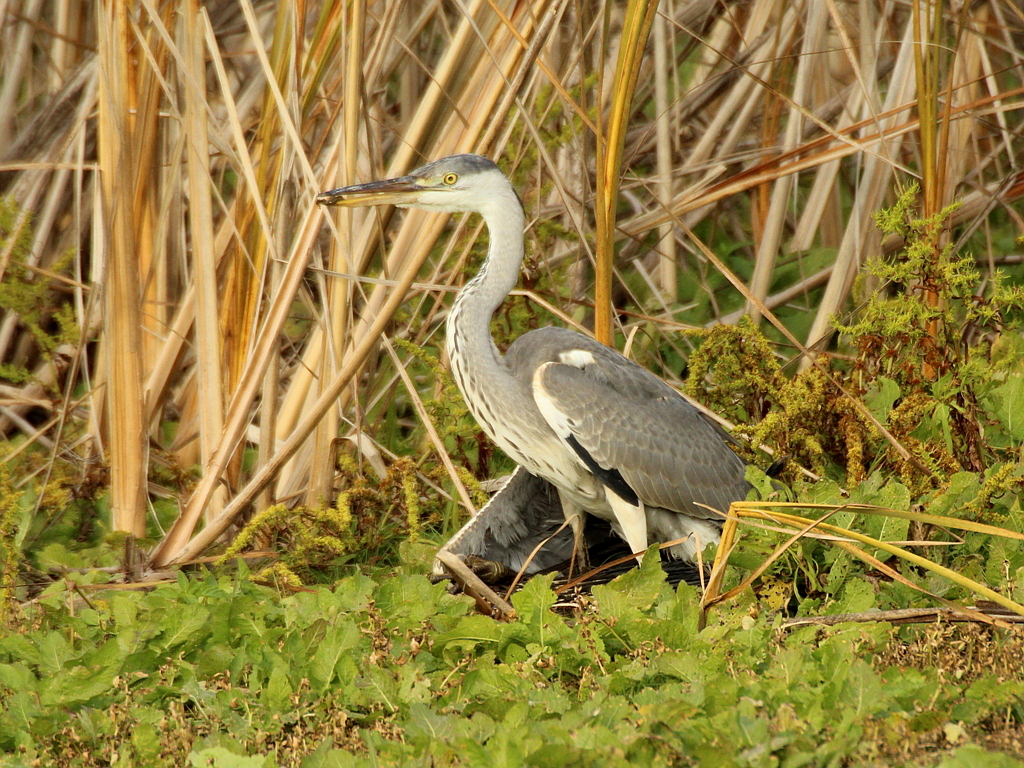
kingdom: Animalia
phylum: Chordata
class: Aves
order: Pelecaniformes
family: Ardeidae
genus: Ardea
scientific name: Ardea cinerea
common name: Grey heron
